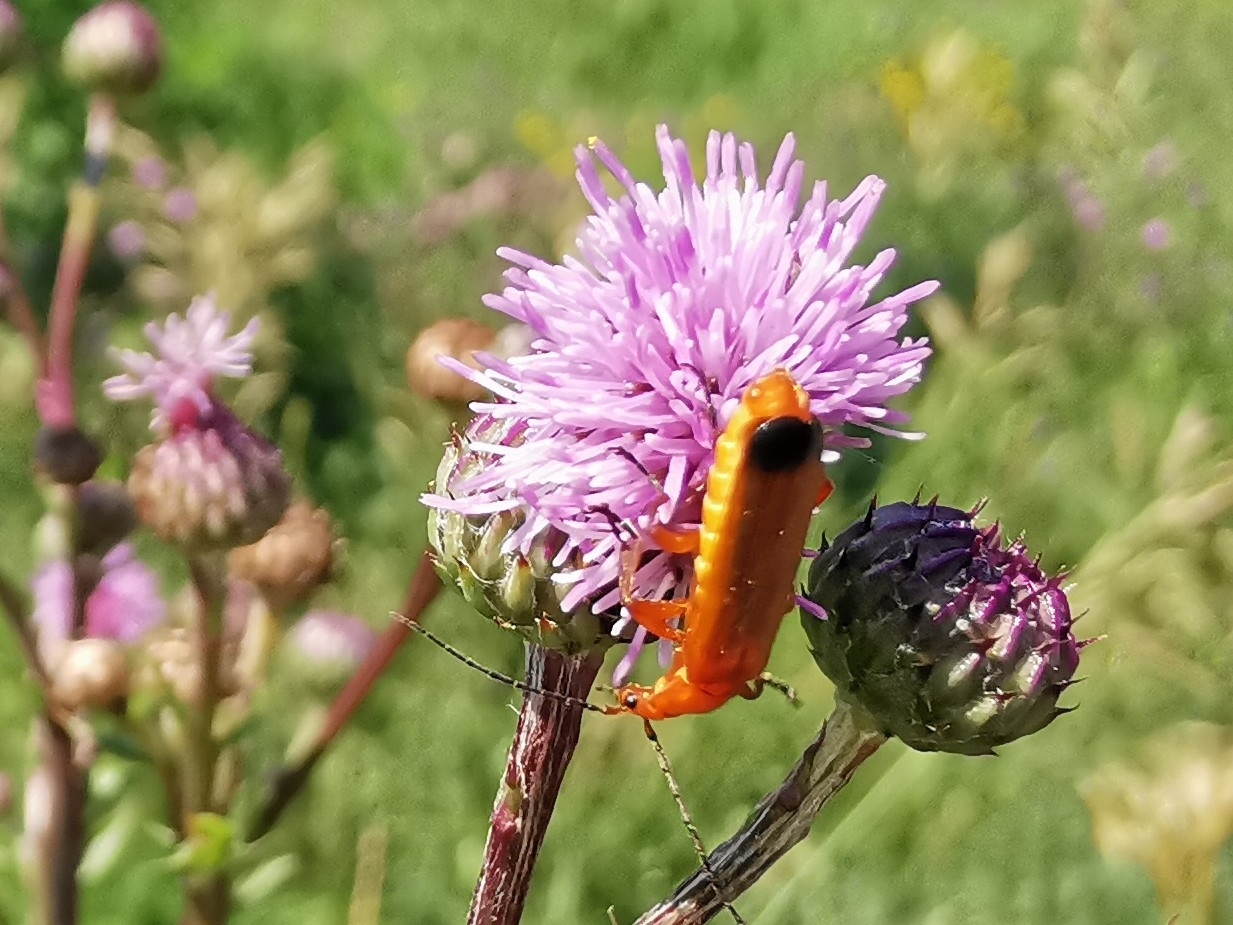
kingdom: Animalia
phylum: Arthropoda
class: Insecta
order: Coleoptera
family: Cantharidae
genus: Rhagonycha
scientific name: Rhagonycha fulva
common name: Common red soldier beetle
